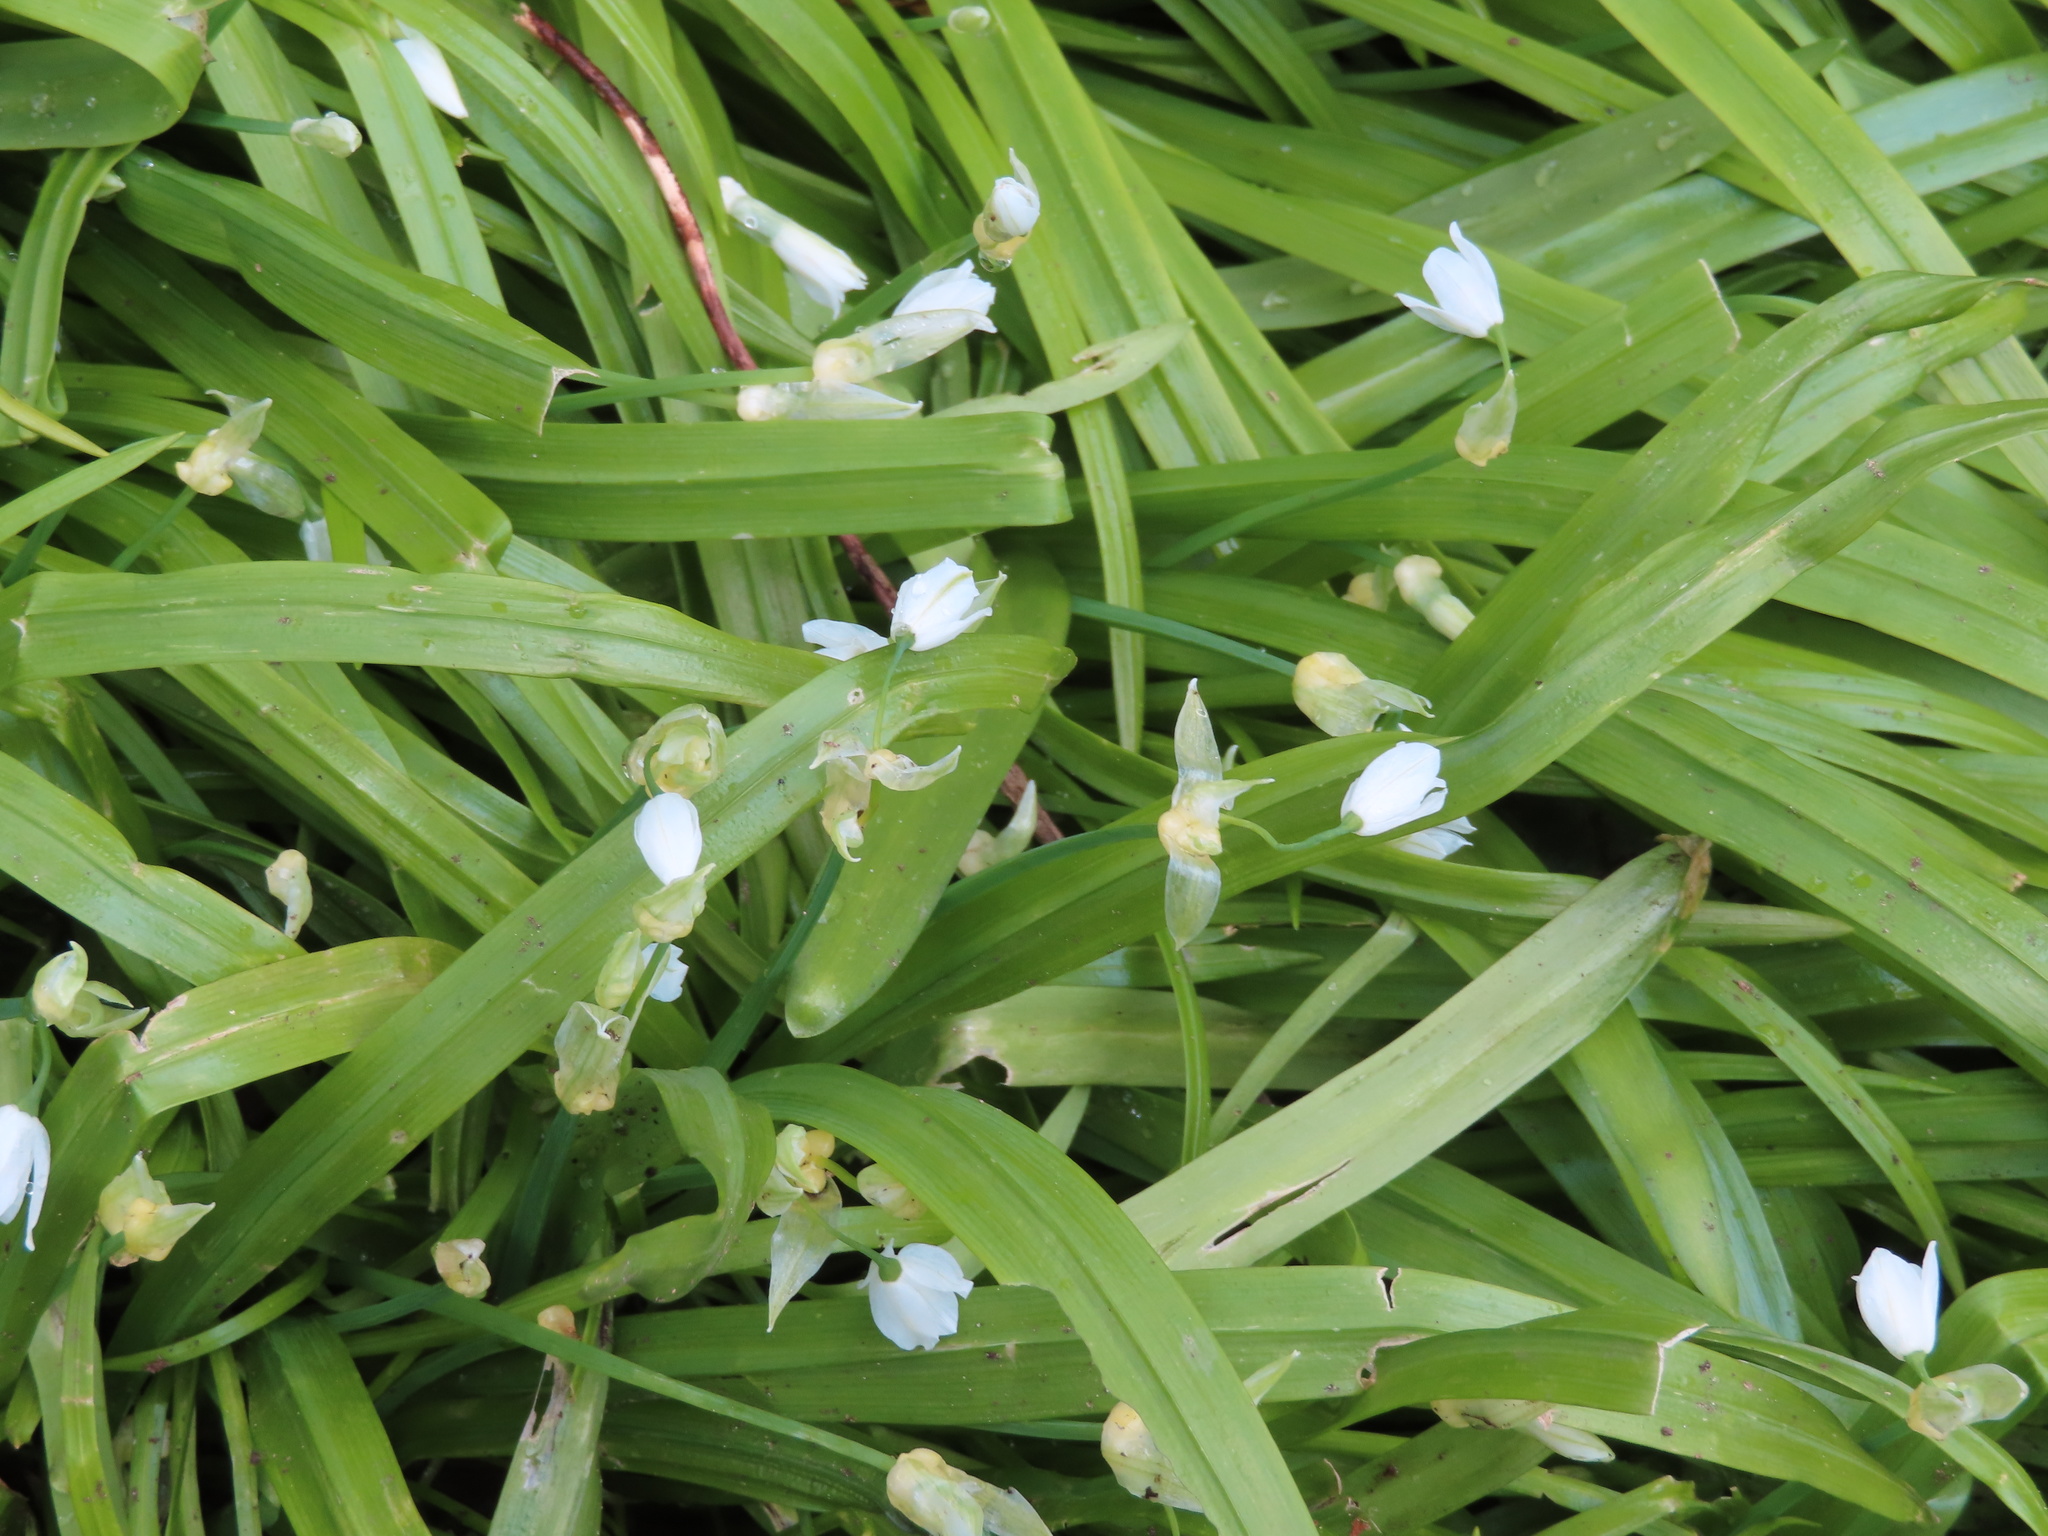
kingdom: Plantae
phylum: Tracheophyta
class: Liliopsida
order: Asparagales
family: Amaryllidaceae
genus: Allium
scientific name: Allium paradoxum
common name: Few-flowered garlic
